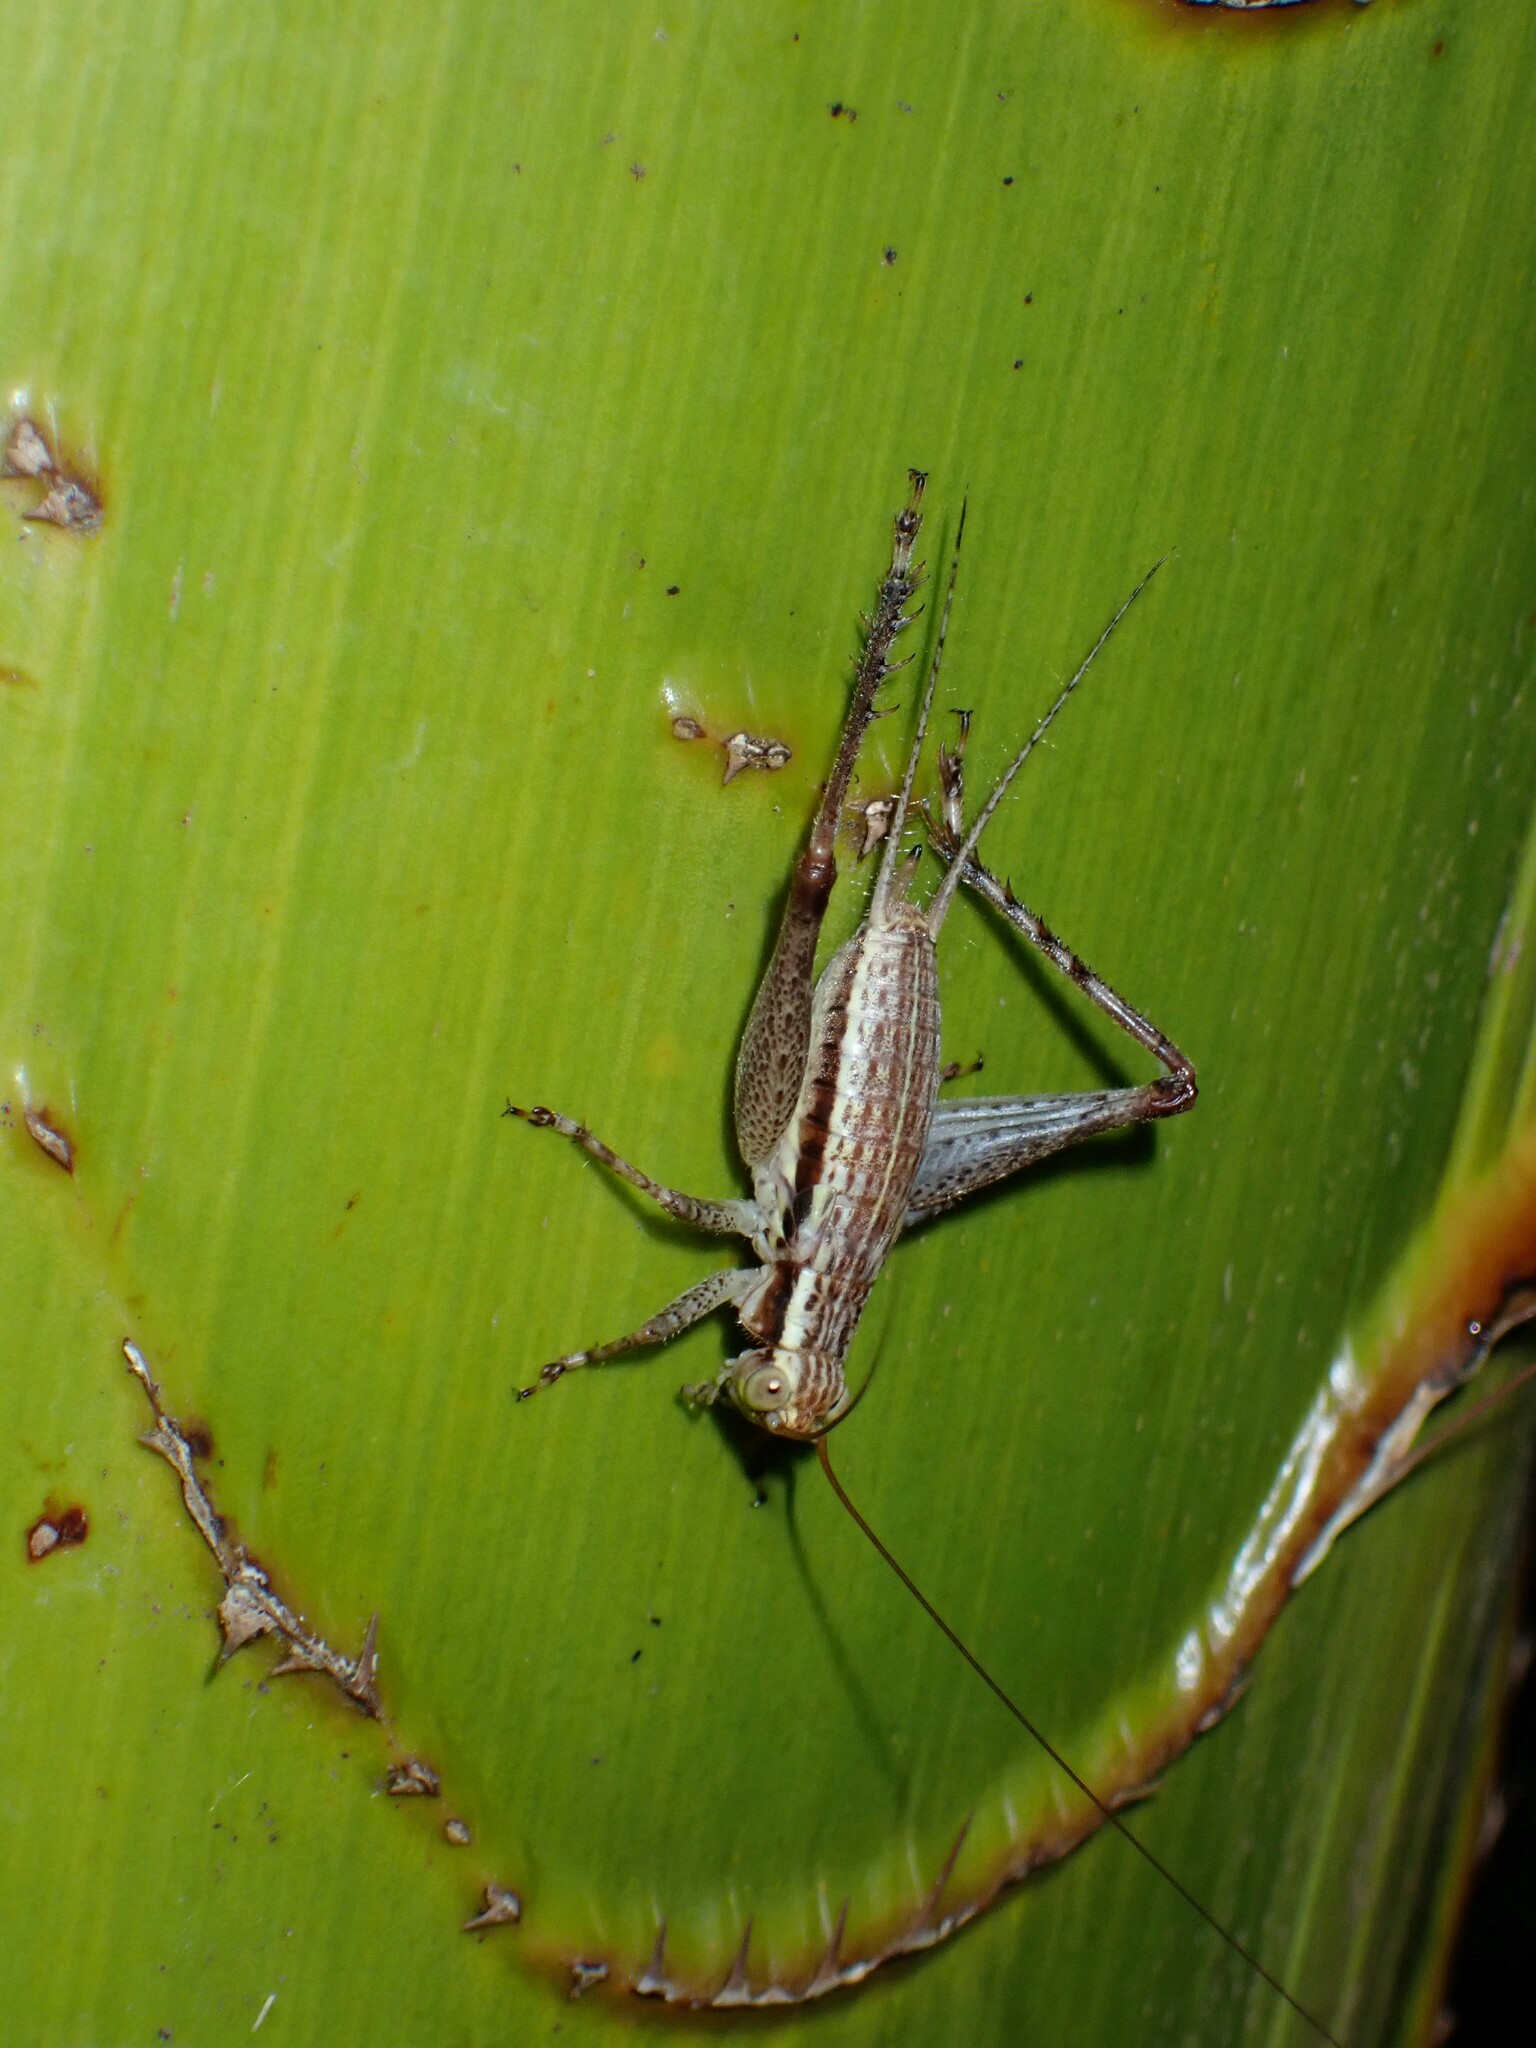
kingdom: Animalia
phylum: Arthropoda
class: Insecta
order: Orthoptera
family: Gryllidae
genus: Cardiodactylus
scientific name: Cardiodactylus novaeguineae
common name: Sad cricket
